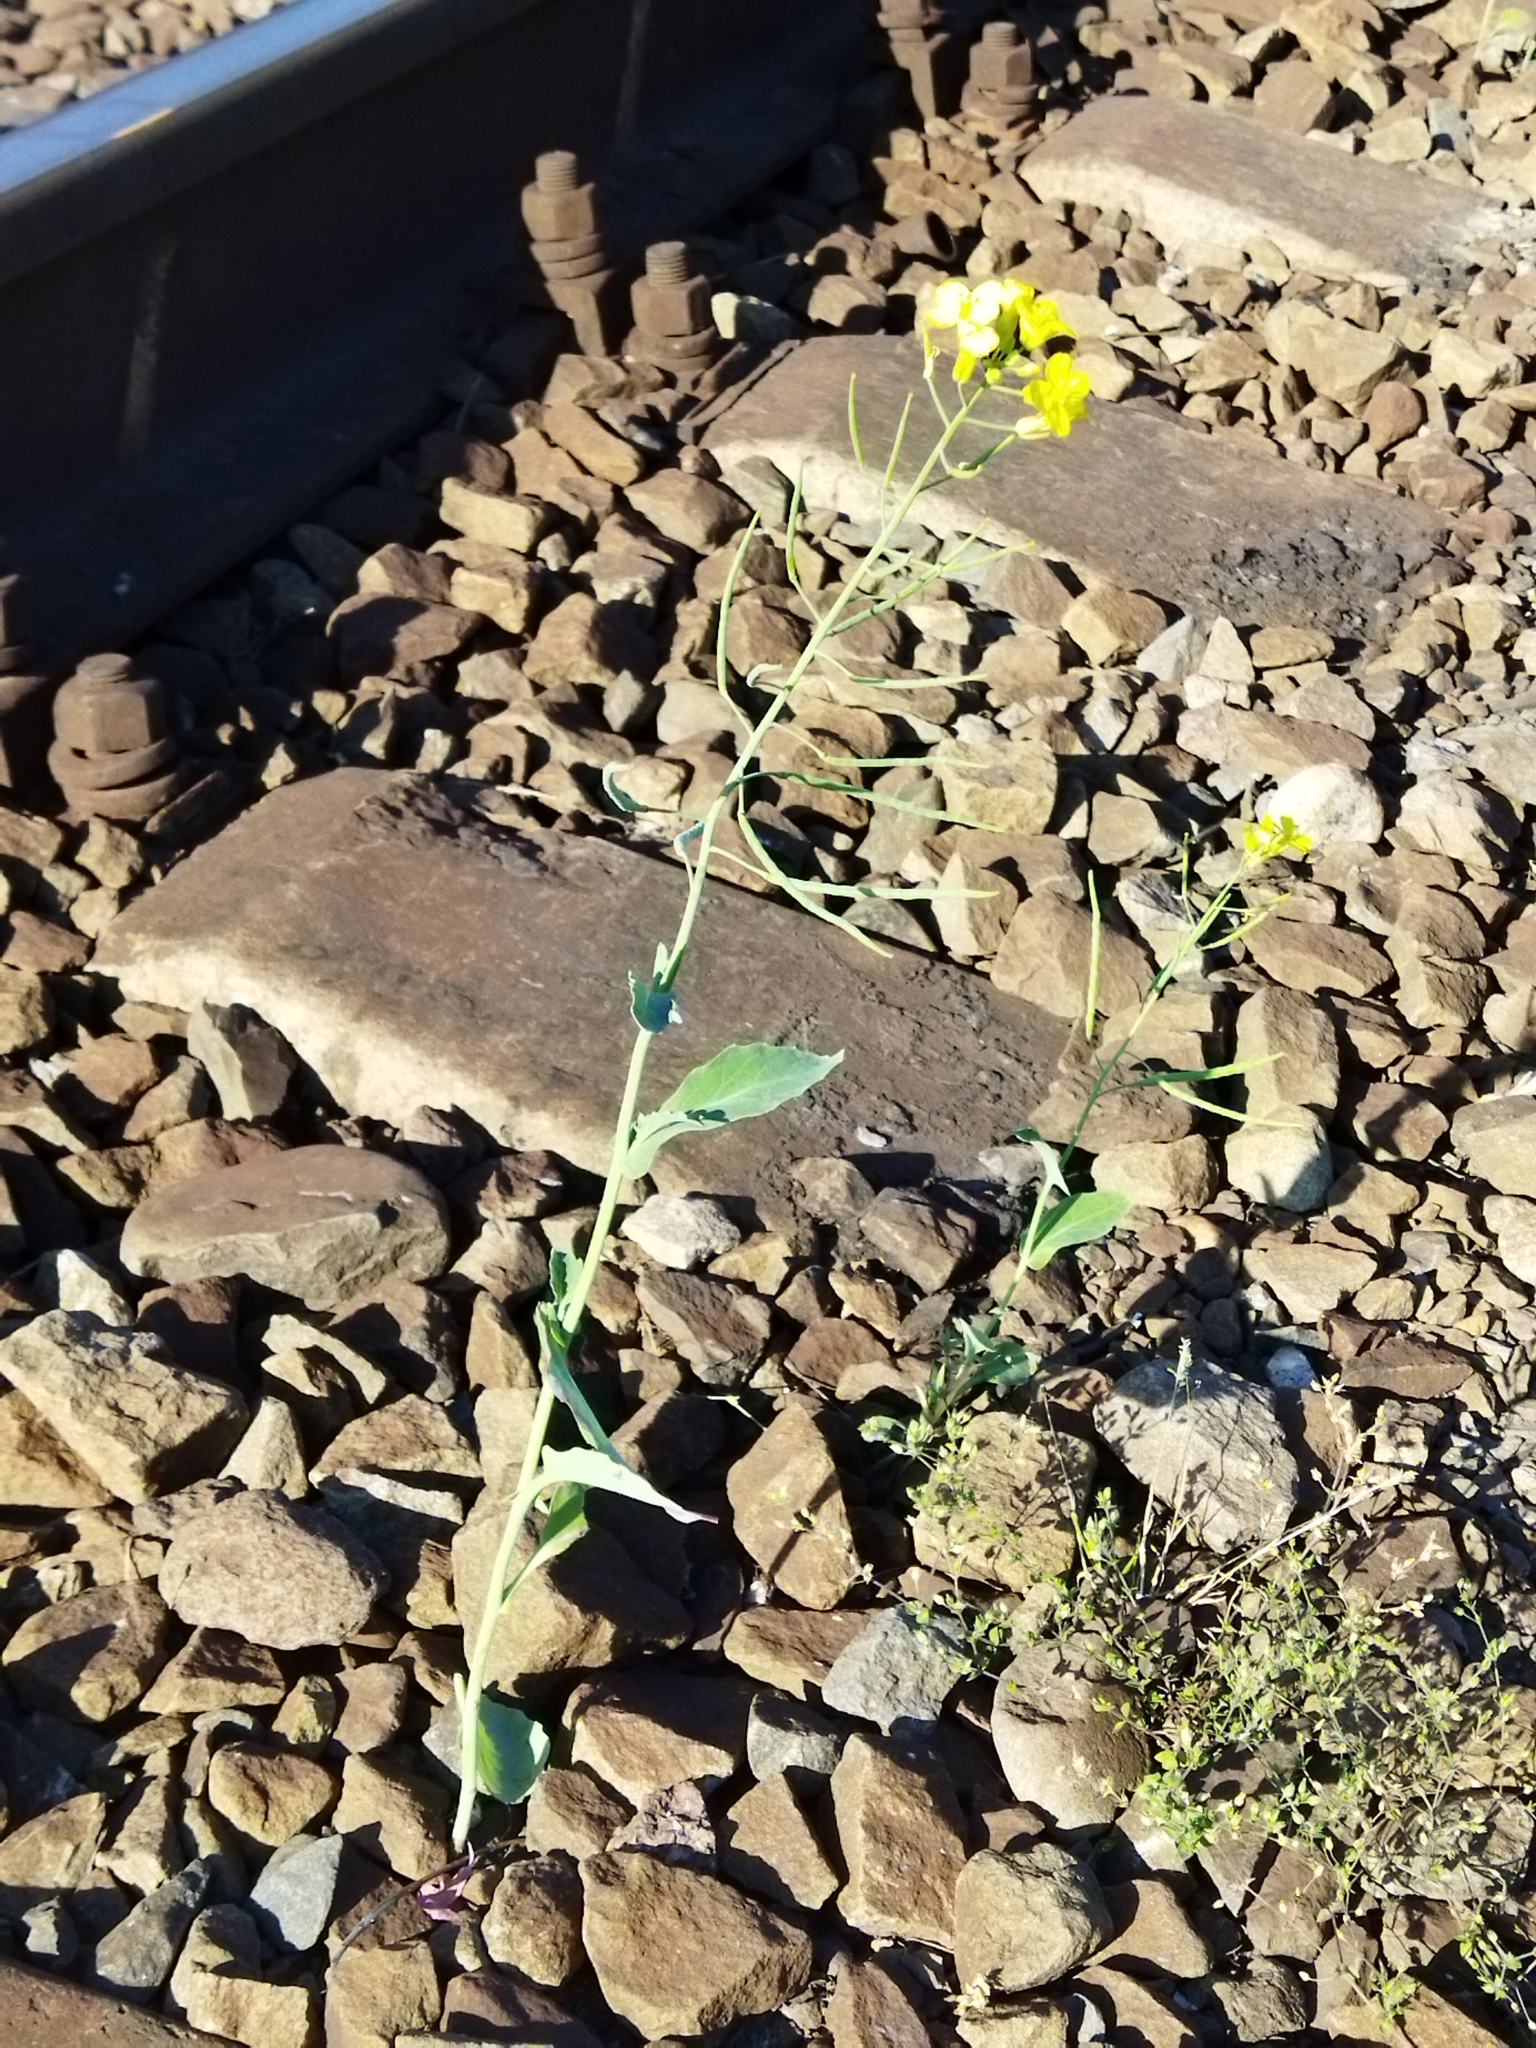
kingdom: Plantae
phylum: Tracheophyta
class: Magnoliopsida
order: Brassicales
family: Brassicaceae
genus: Brassica
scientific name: Brassica napus
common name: Rape
